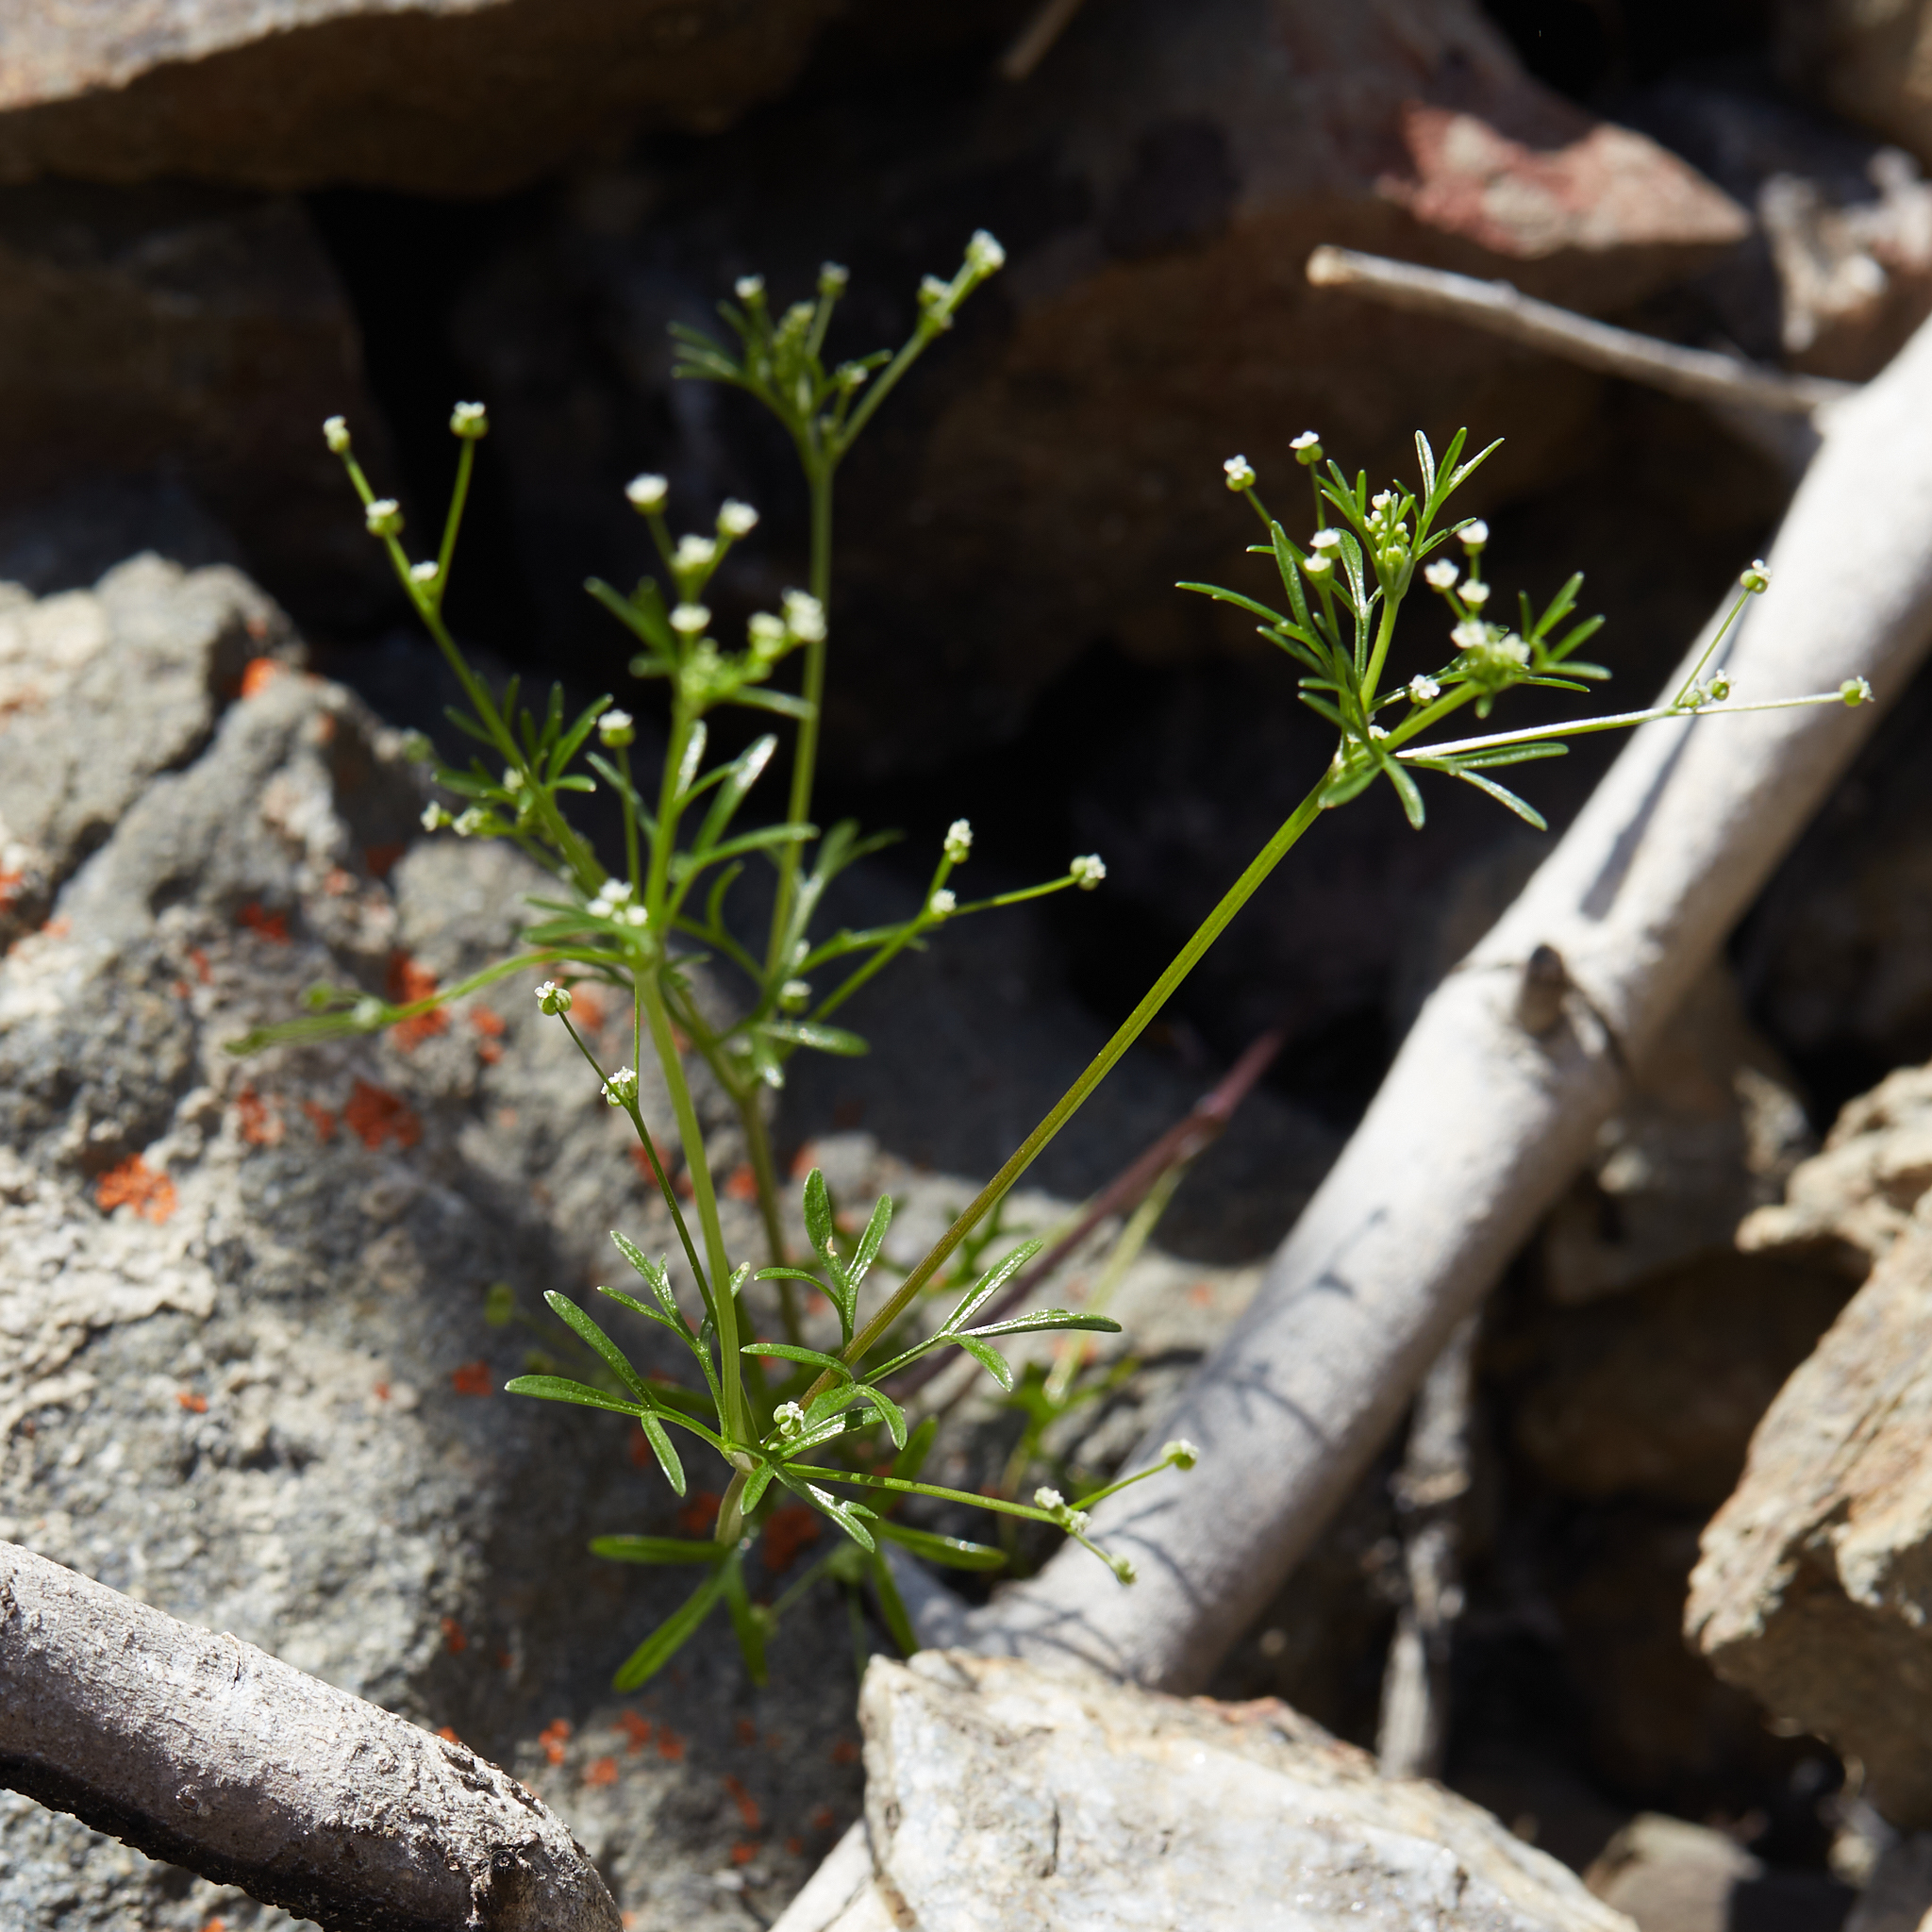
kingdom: Plantae
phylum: Tracheophyta
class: Magnoliopsida
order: Apiales
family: Apiaceae
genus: Apiastrum
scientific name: Apiastrum angustifolium
